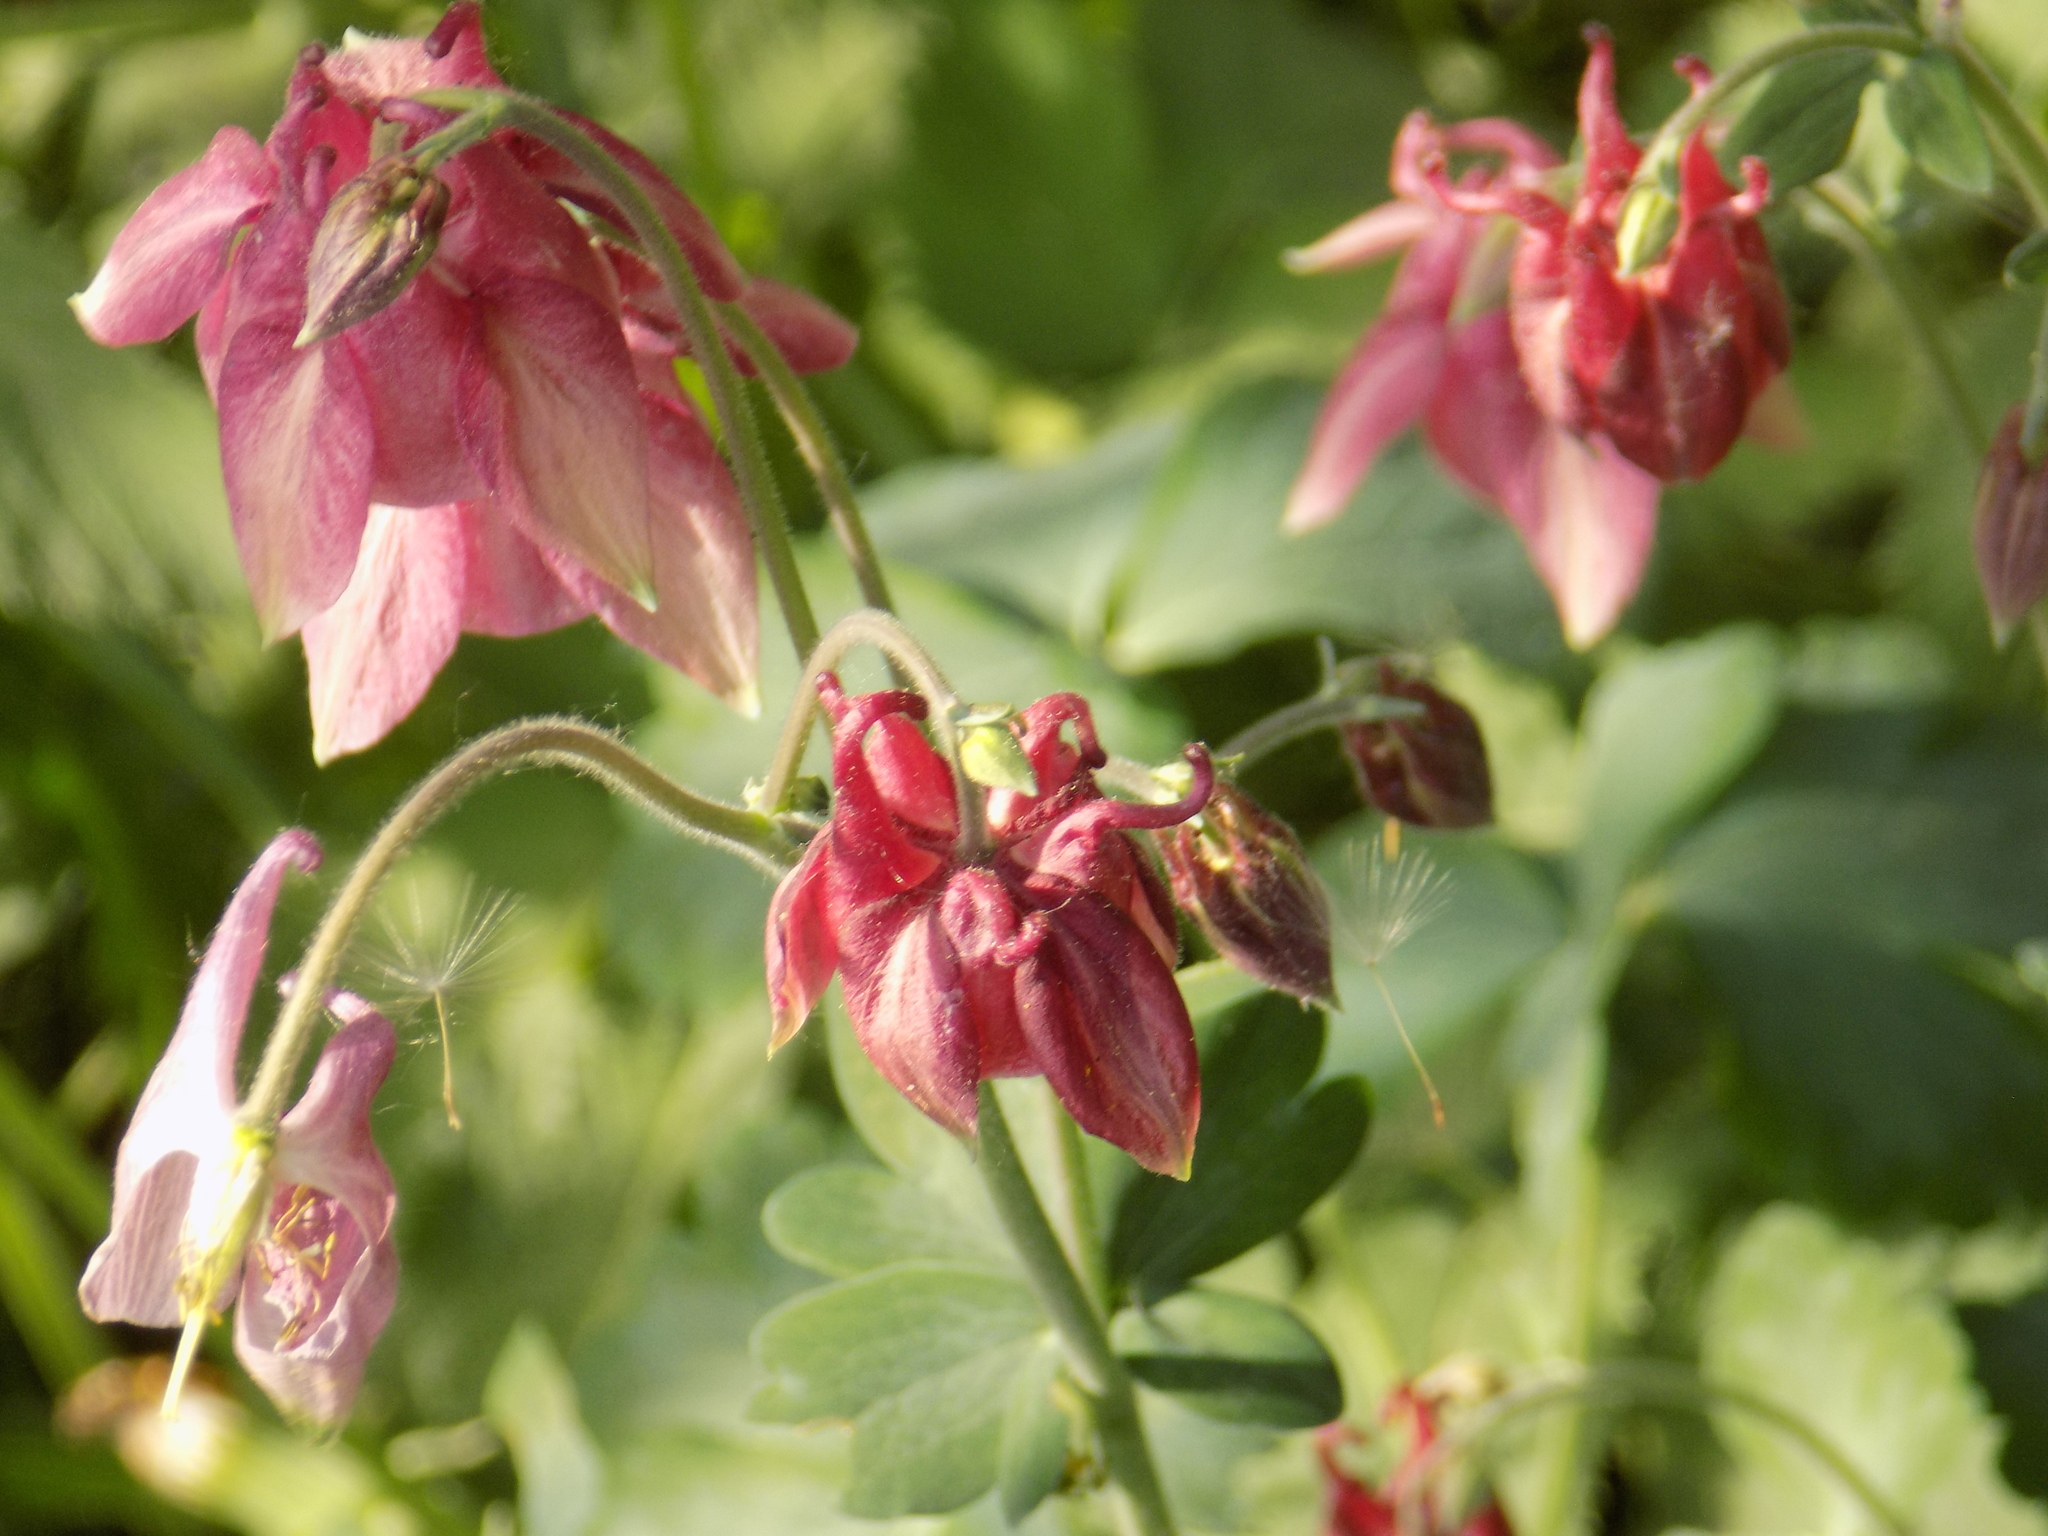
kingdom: Plantae
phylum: Tracheophyta
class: Magnoliopsida
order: Ranunculales
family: Ranunculaceae
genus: Aquilegia
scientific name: Aquilegia vulgaris
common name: Columbine
